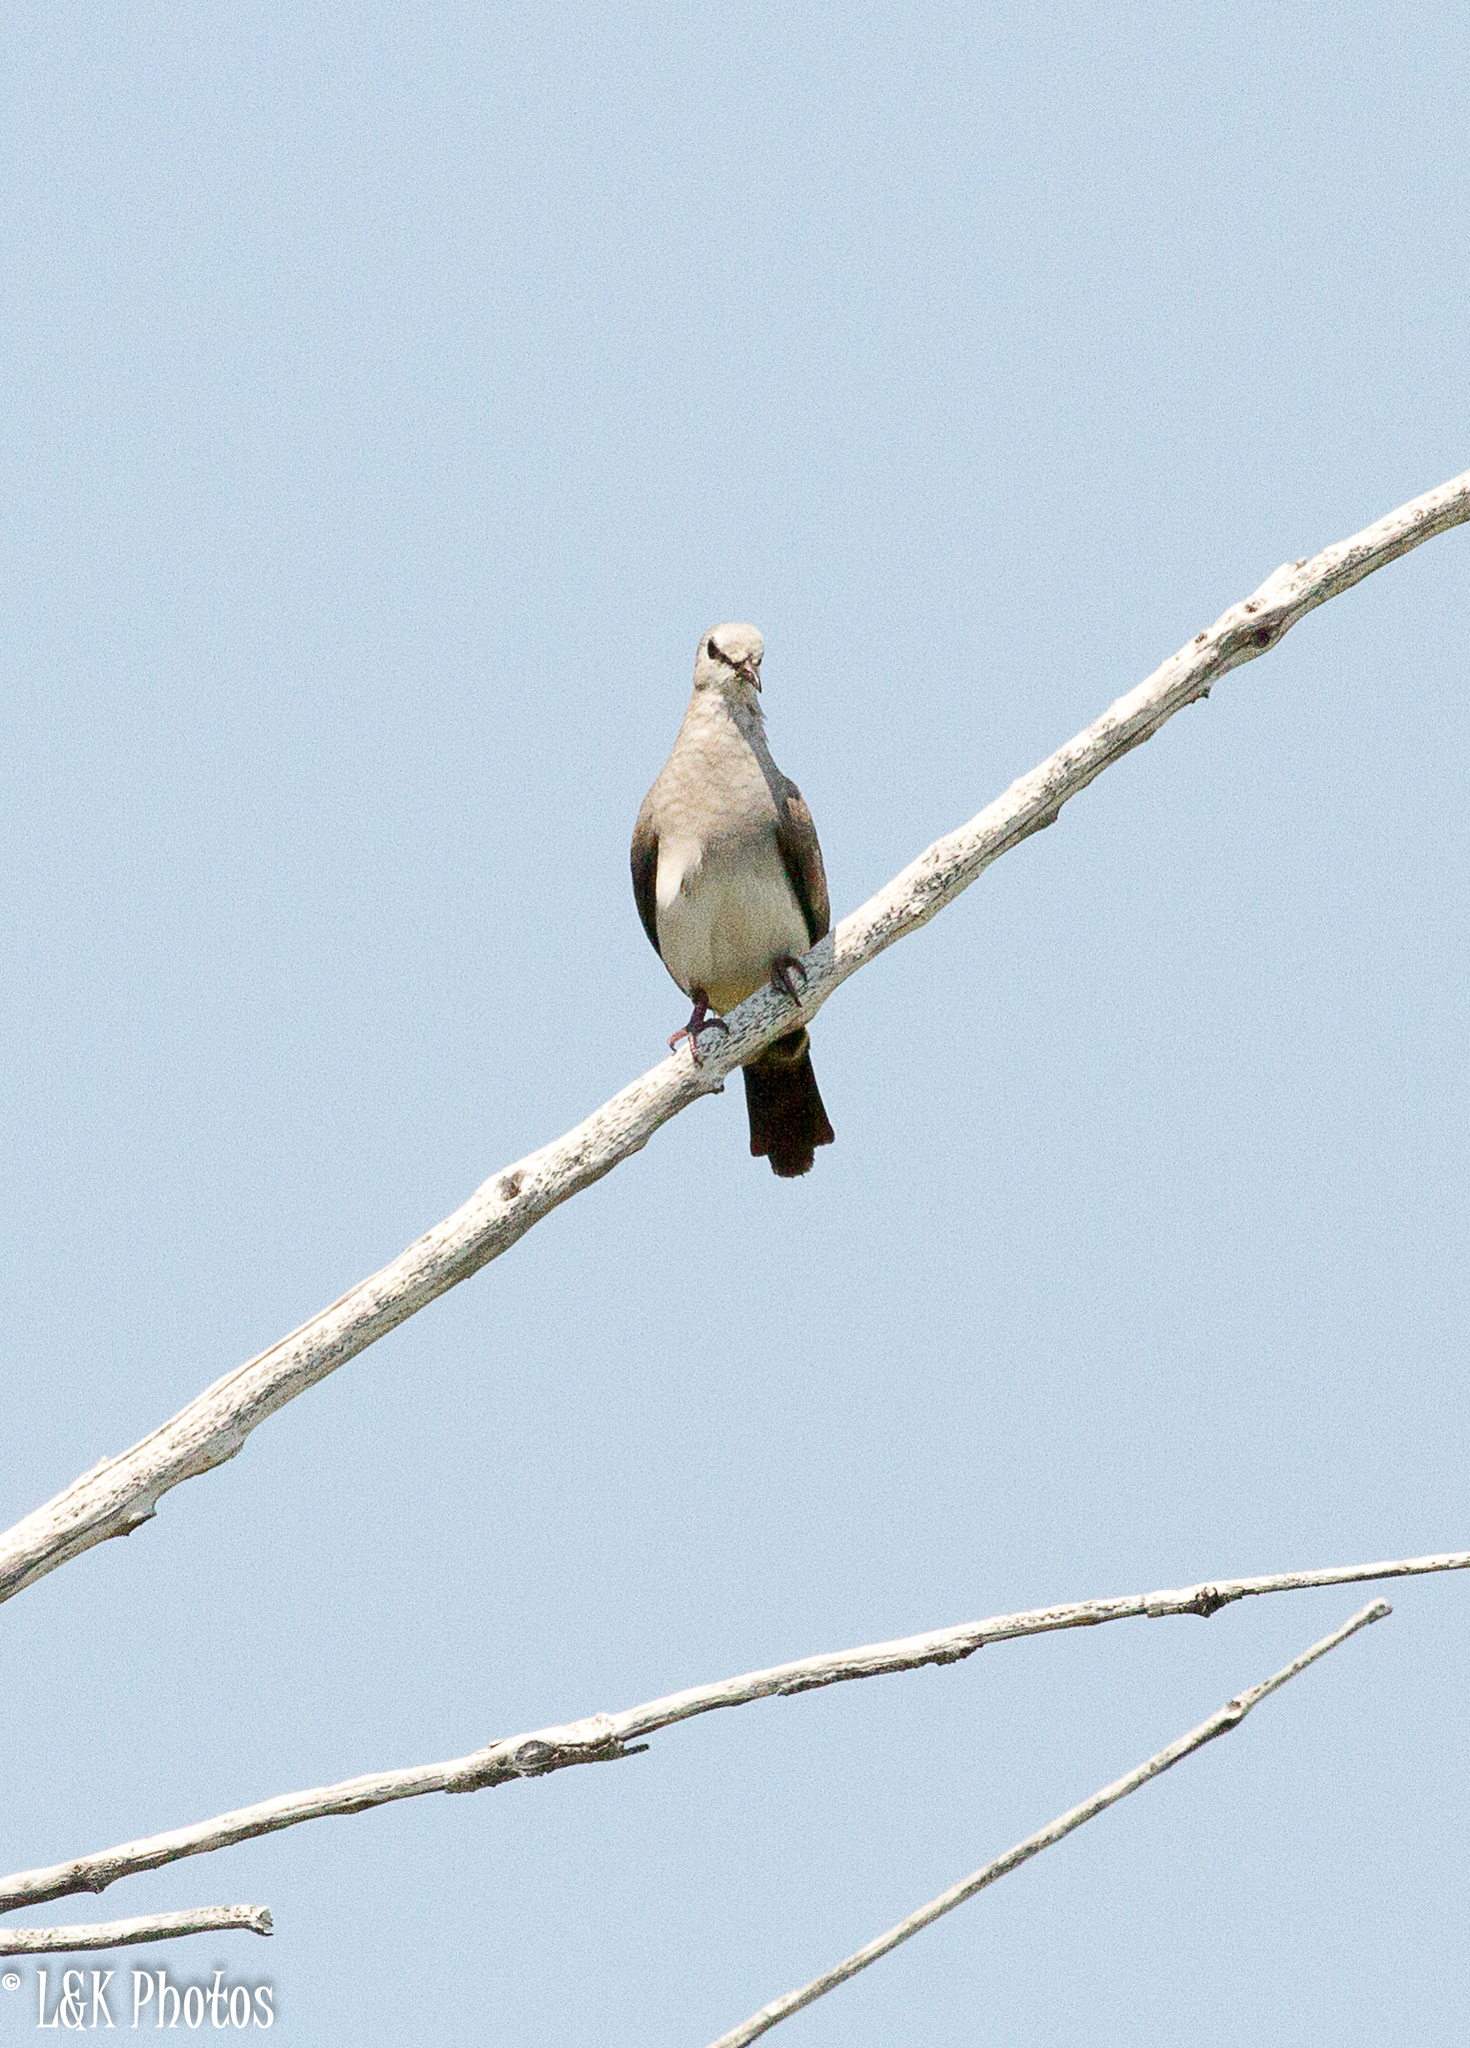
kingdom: Animalia
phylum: Chordata
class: Aves
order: Columbiformes
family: Columbidae
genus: Oena
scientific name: Oena capensis
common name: Namaqua dove
